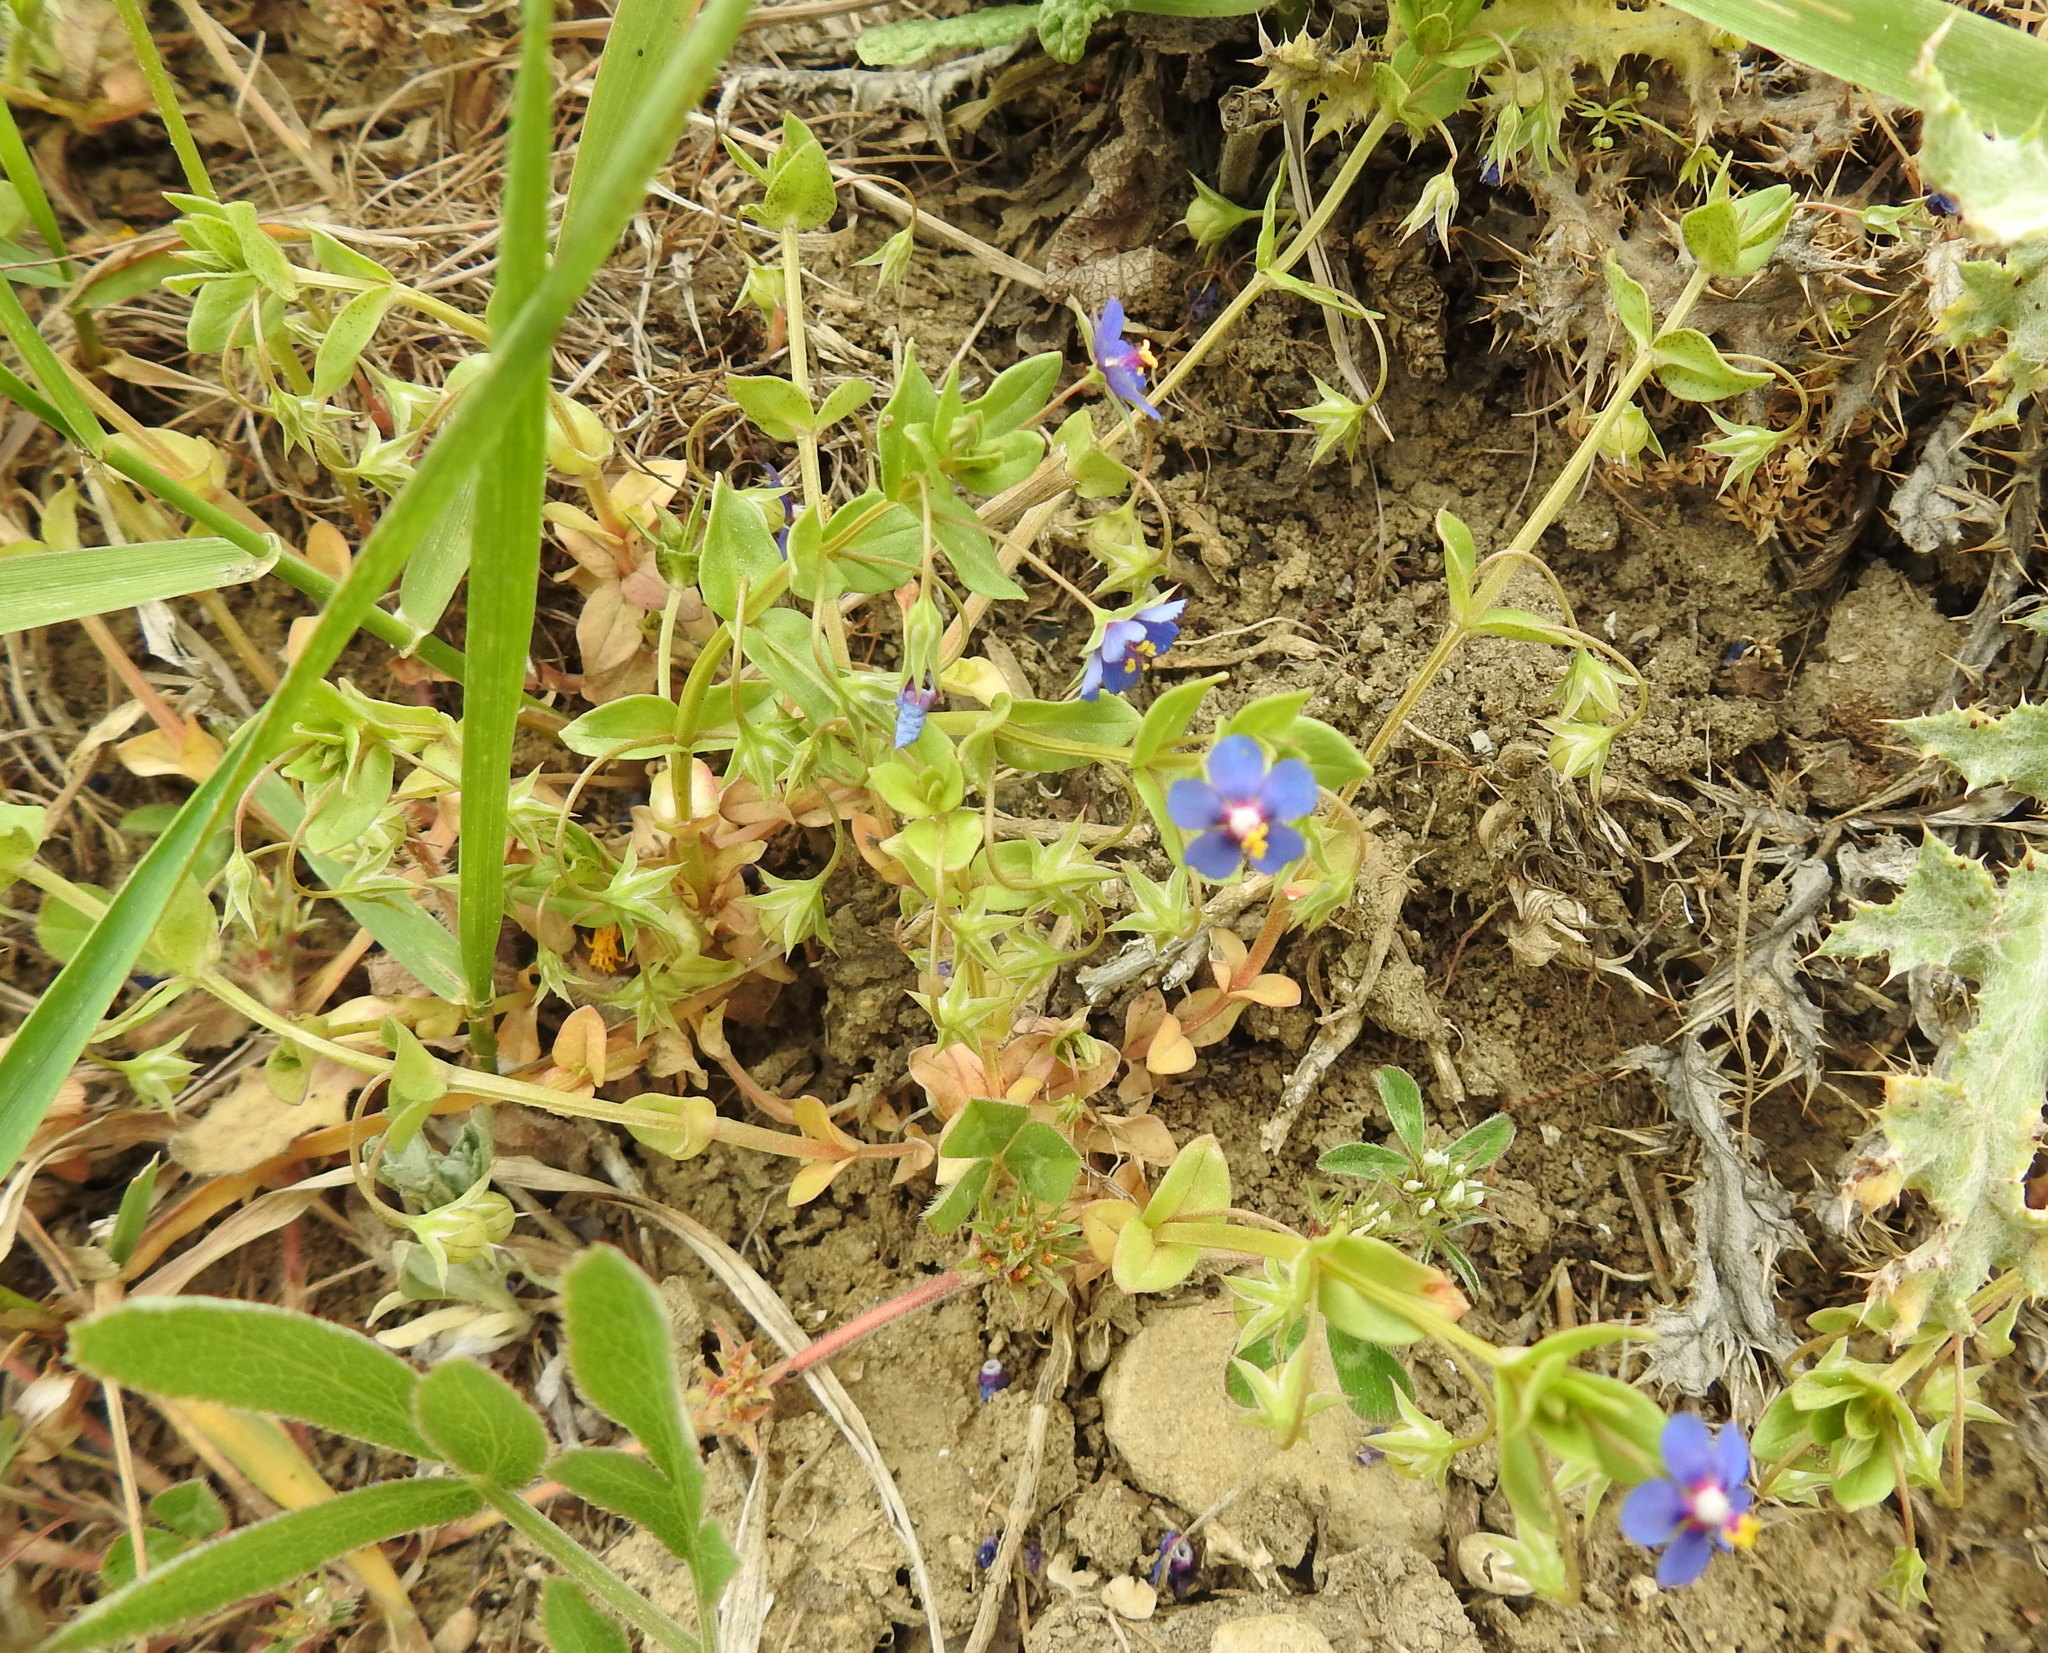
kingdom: Plantae
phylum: Tracheophyta
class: Magnoliopsida
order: Ericales
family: Primulaceae
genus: Lysimachia
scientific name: Lysimachia foemina
